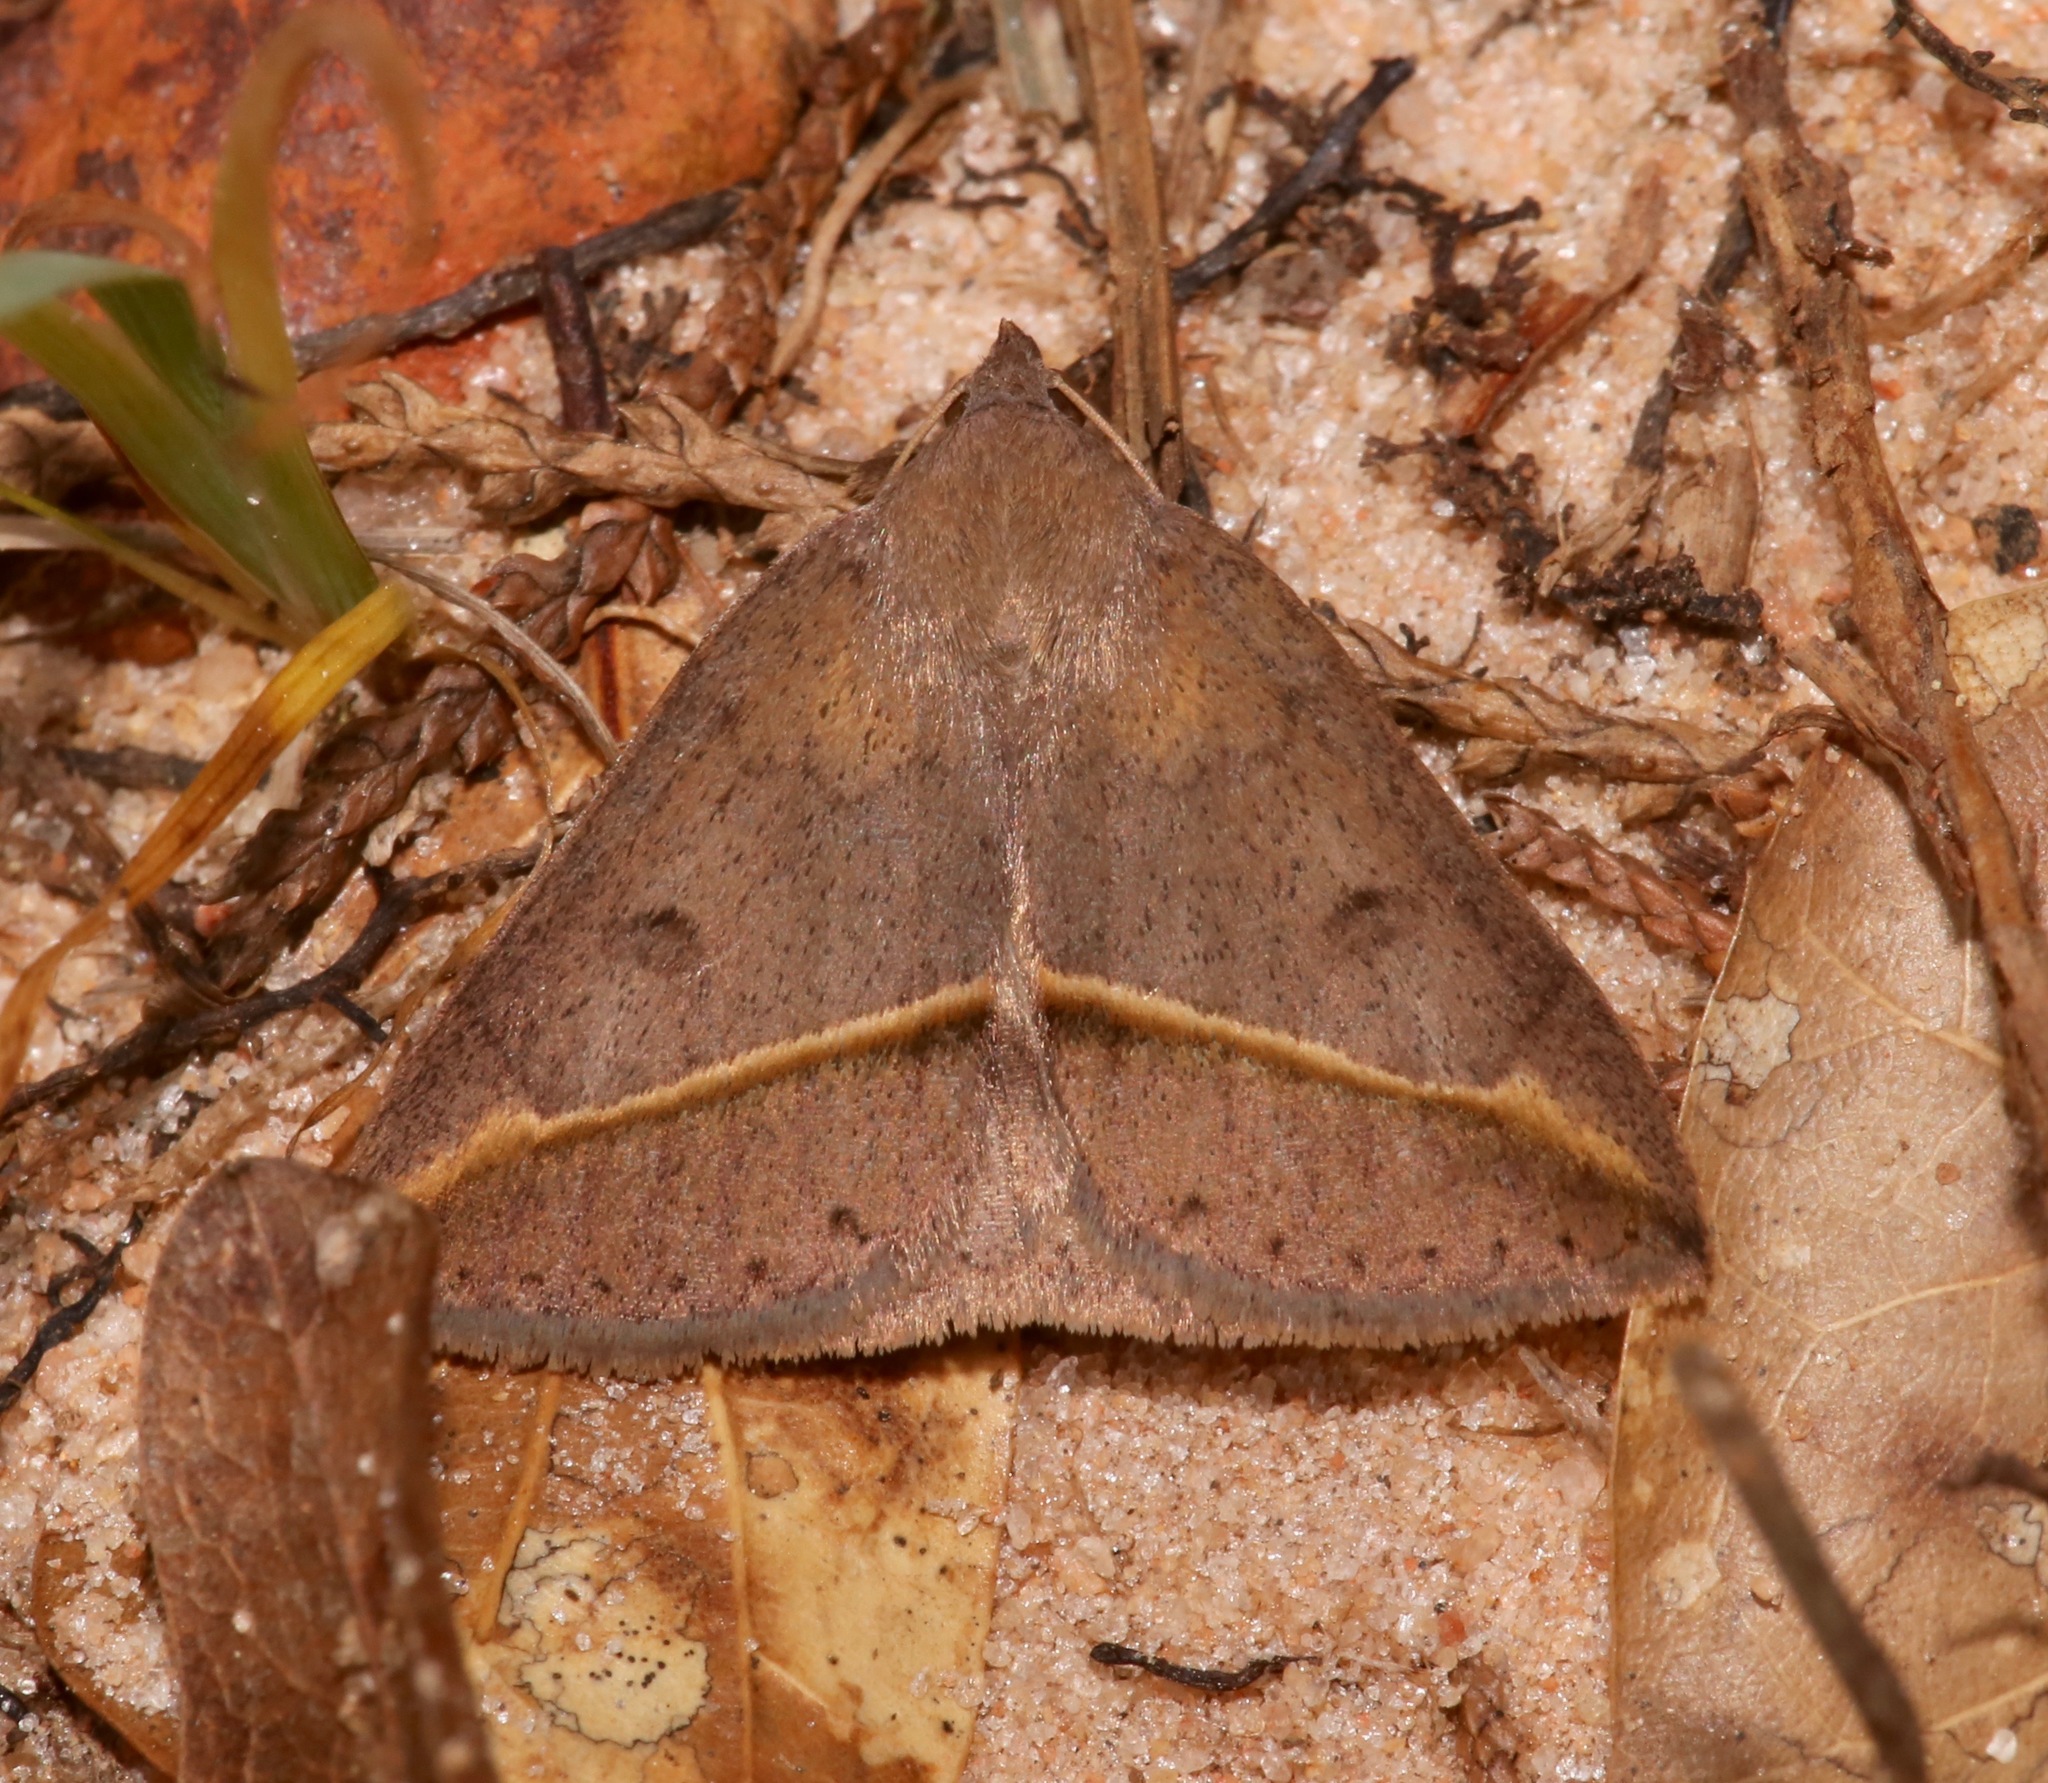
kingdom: Animalia
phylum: Arthropoda
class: Insecta
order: Lepidoptera
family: Erebidae
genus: Argyrostrotis
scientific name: Argyrostrotis flavistriaria
